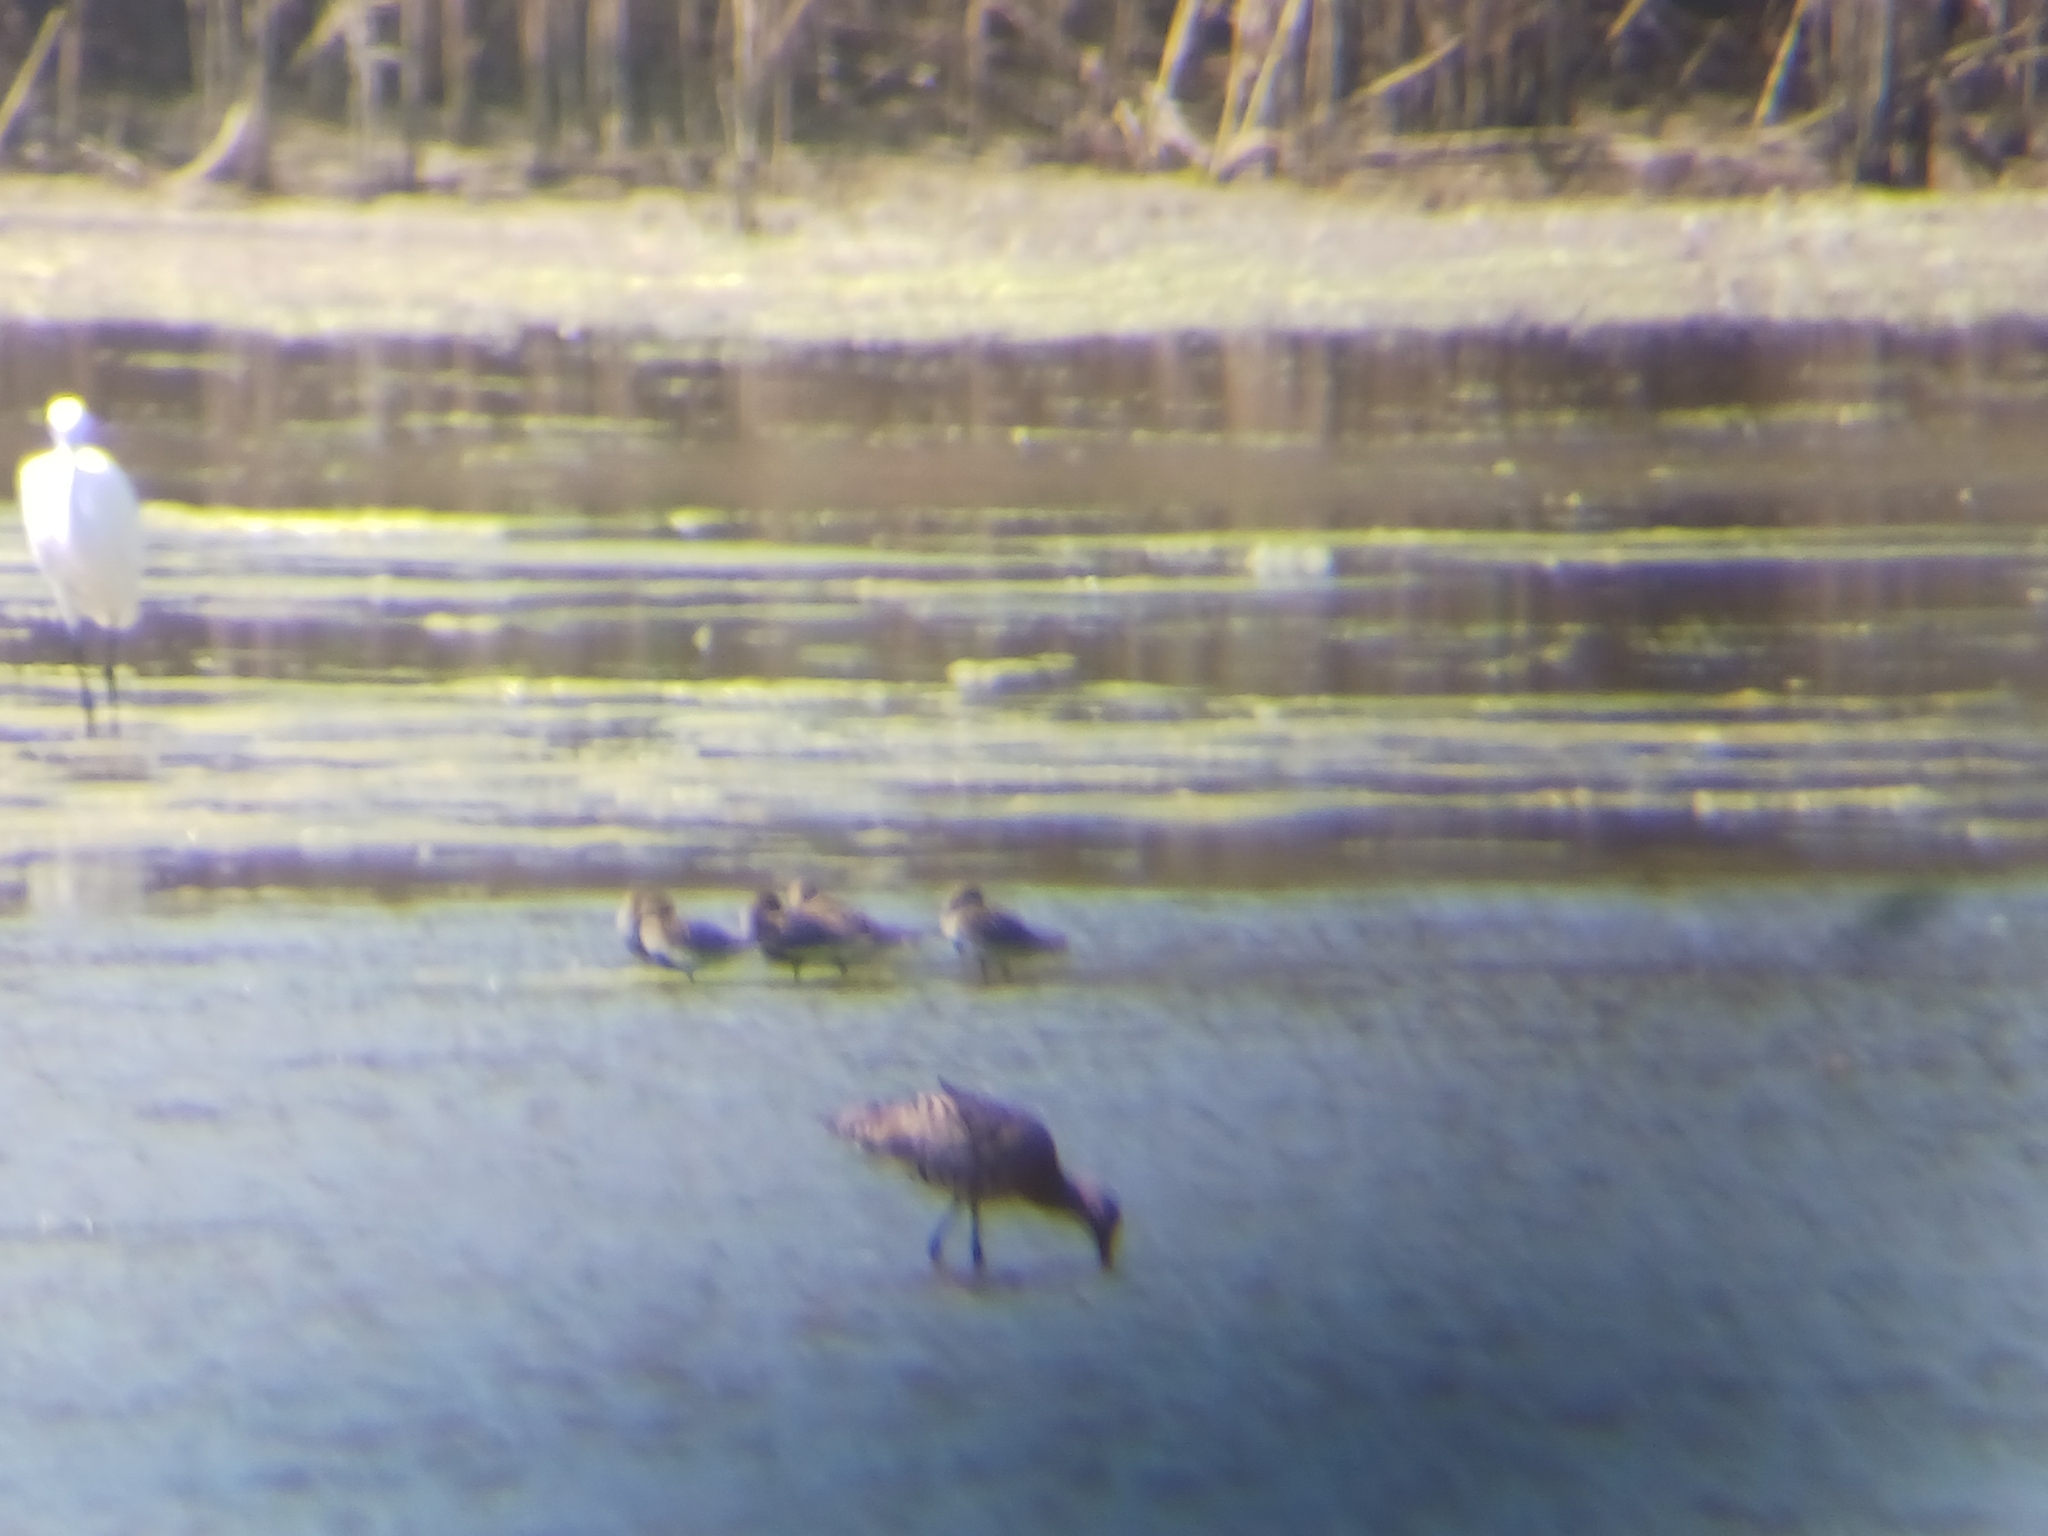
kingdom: Animalia
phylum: Chordata
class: Aves
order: Charadriiformes
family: Scolopacidae
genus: Limosa
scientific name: Limosa limosa
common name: Black-tailed godwit
